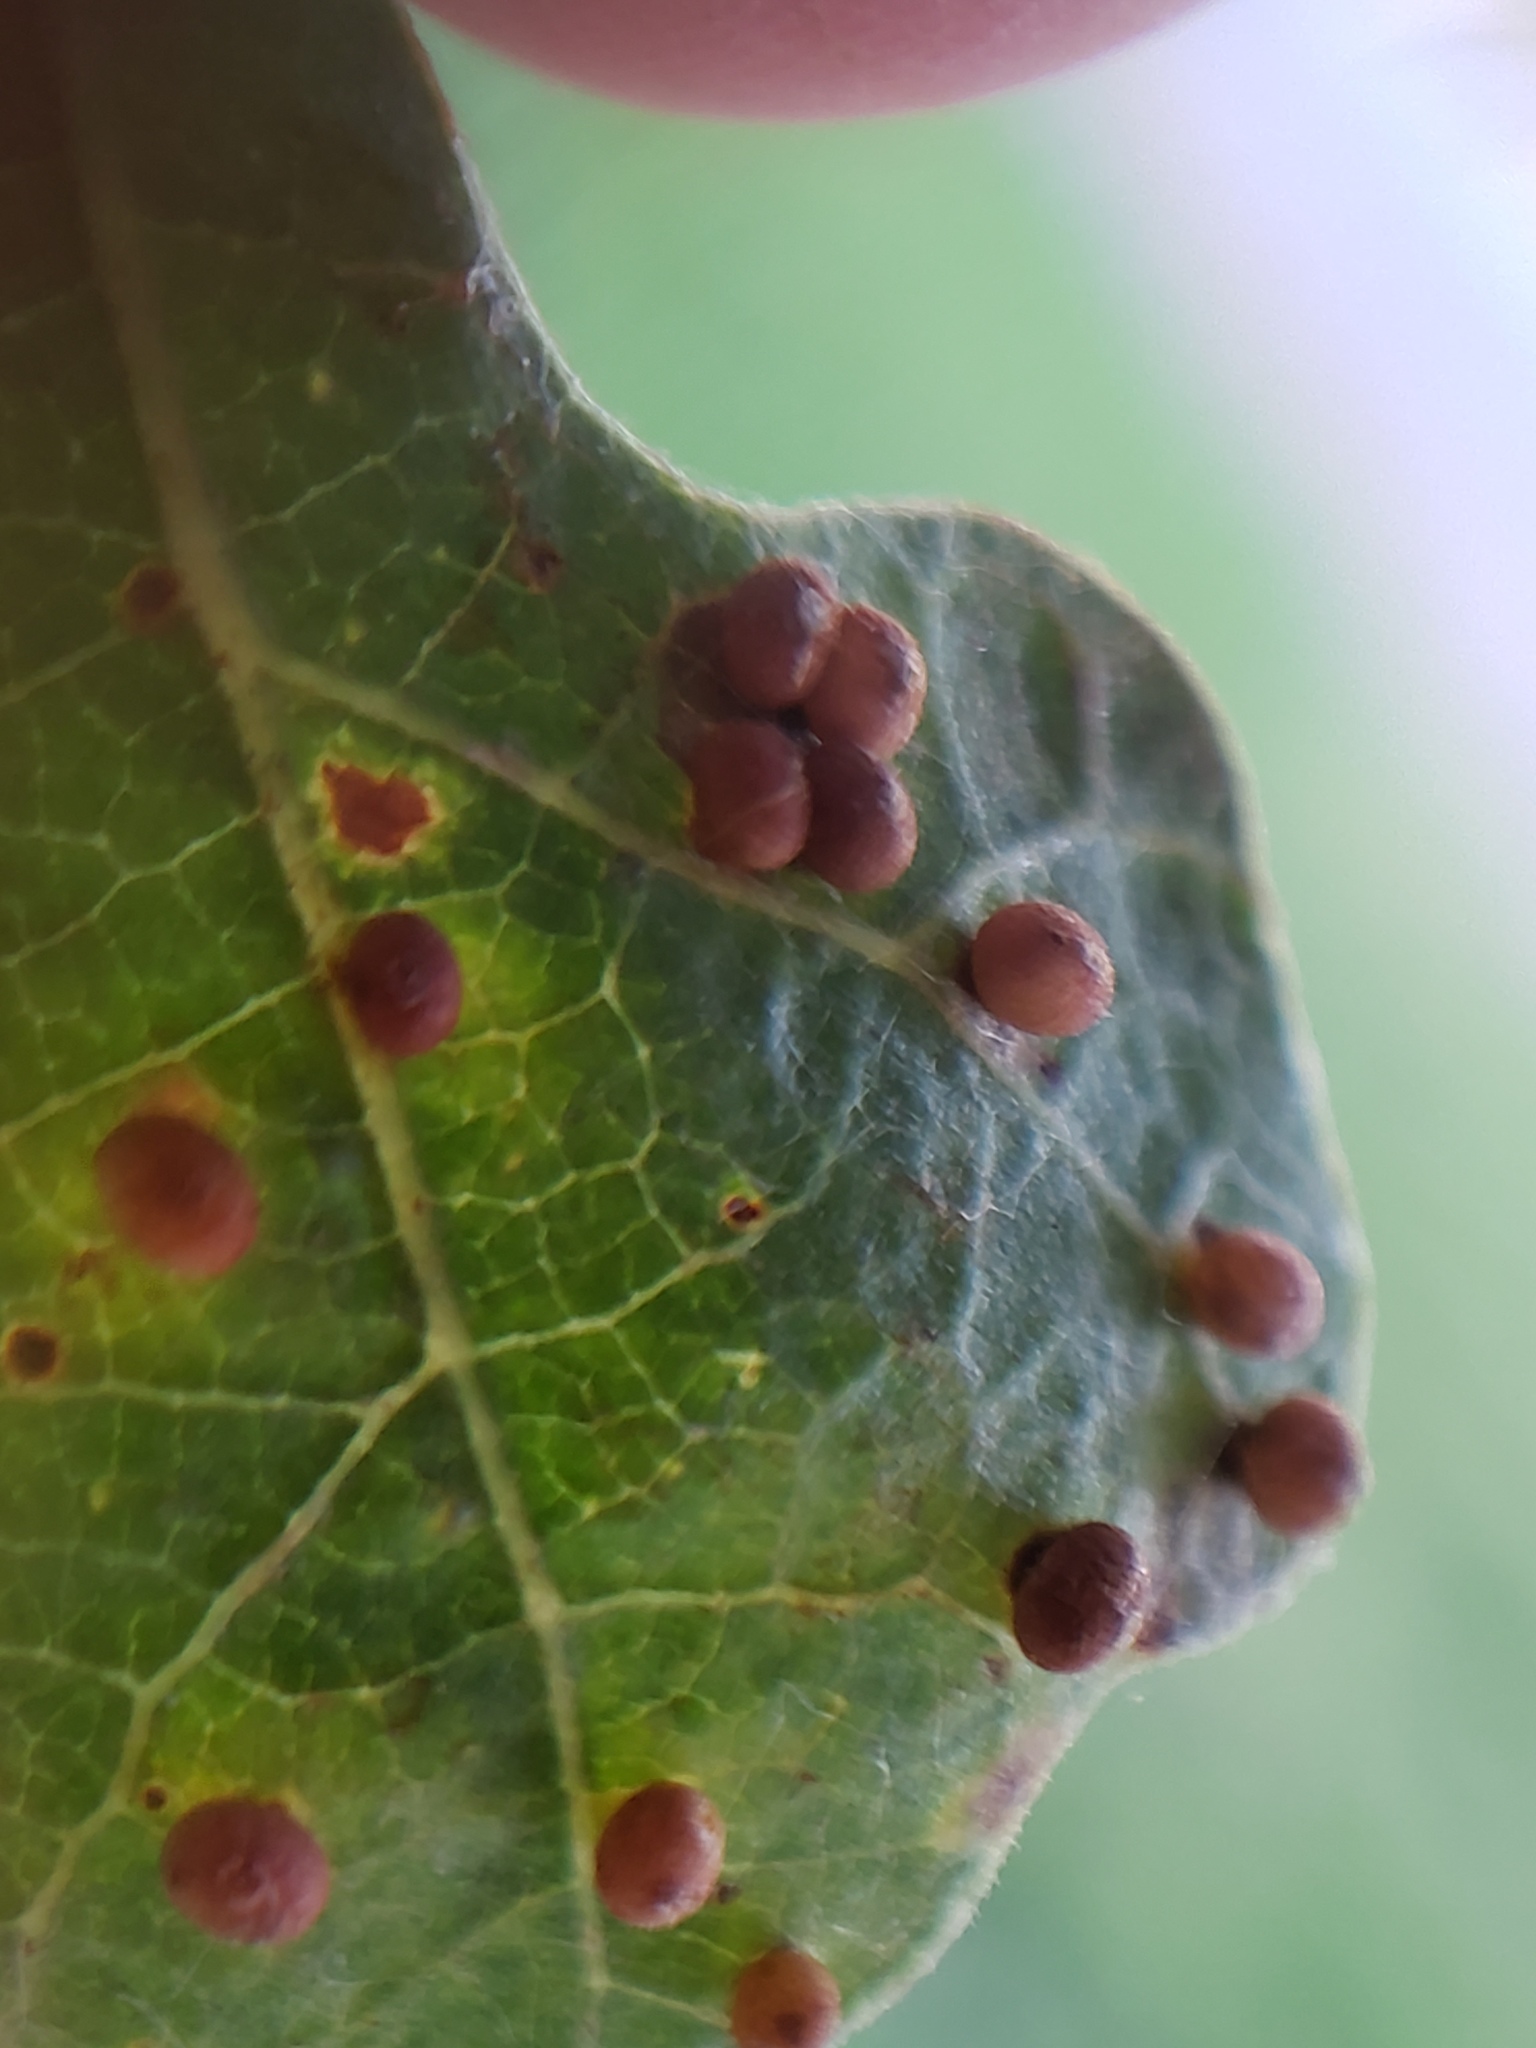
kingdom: Animalia
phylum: Arthropoda
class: Insecta
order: Hymenoptera
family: Cynipidae
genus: Neuroterus
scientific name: Neuroterus saltarius
